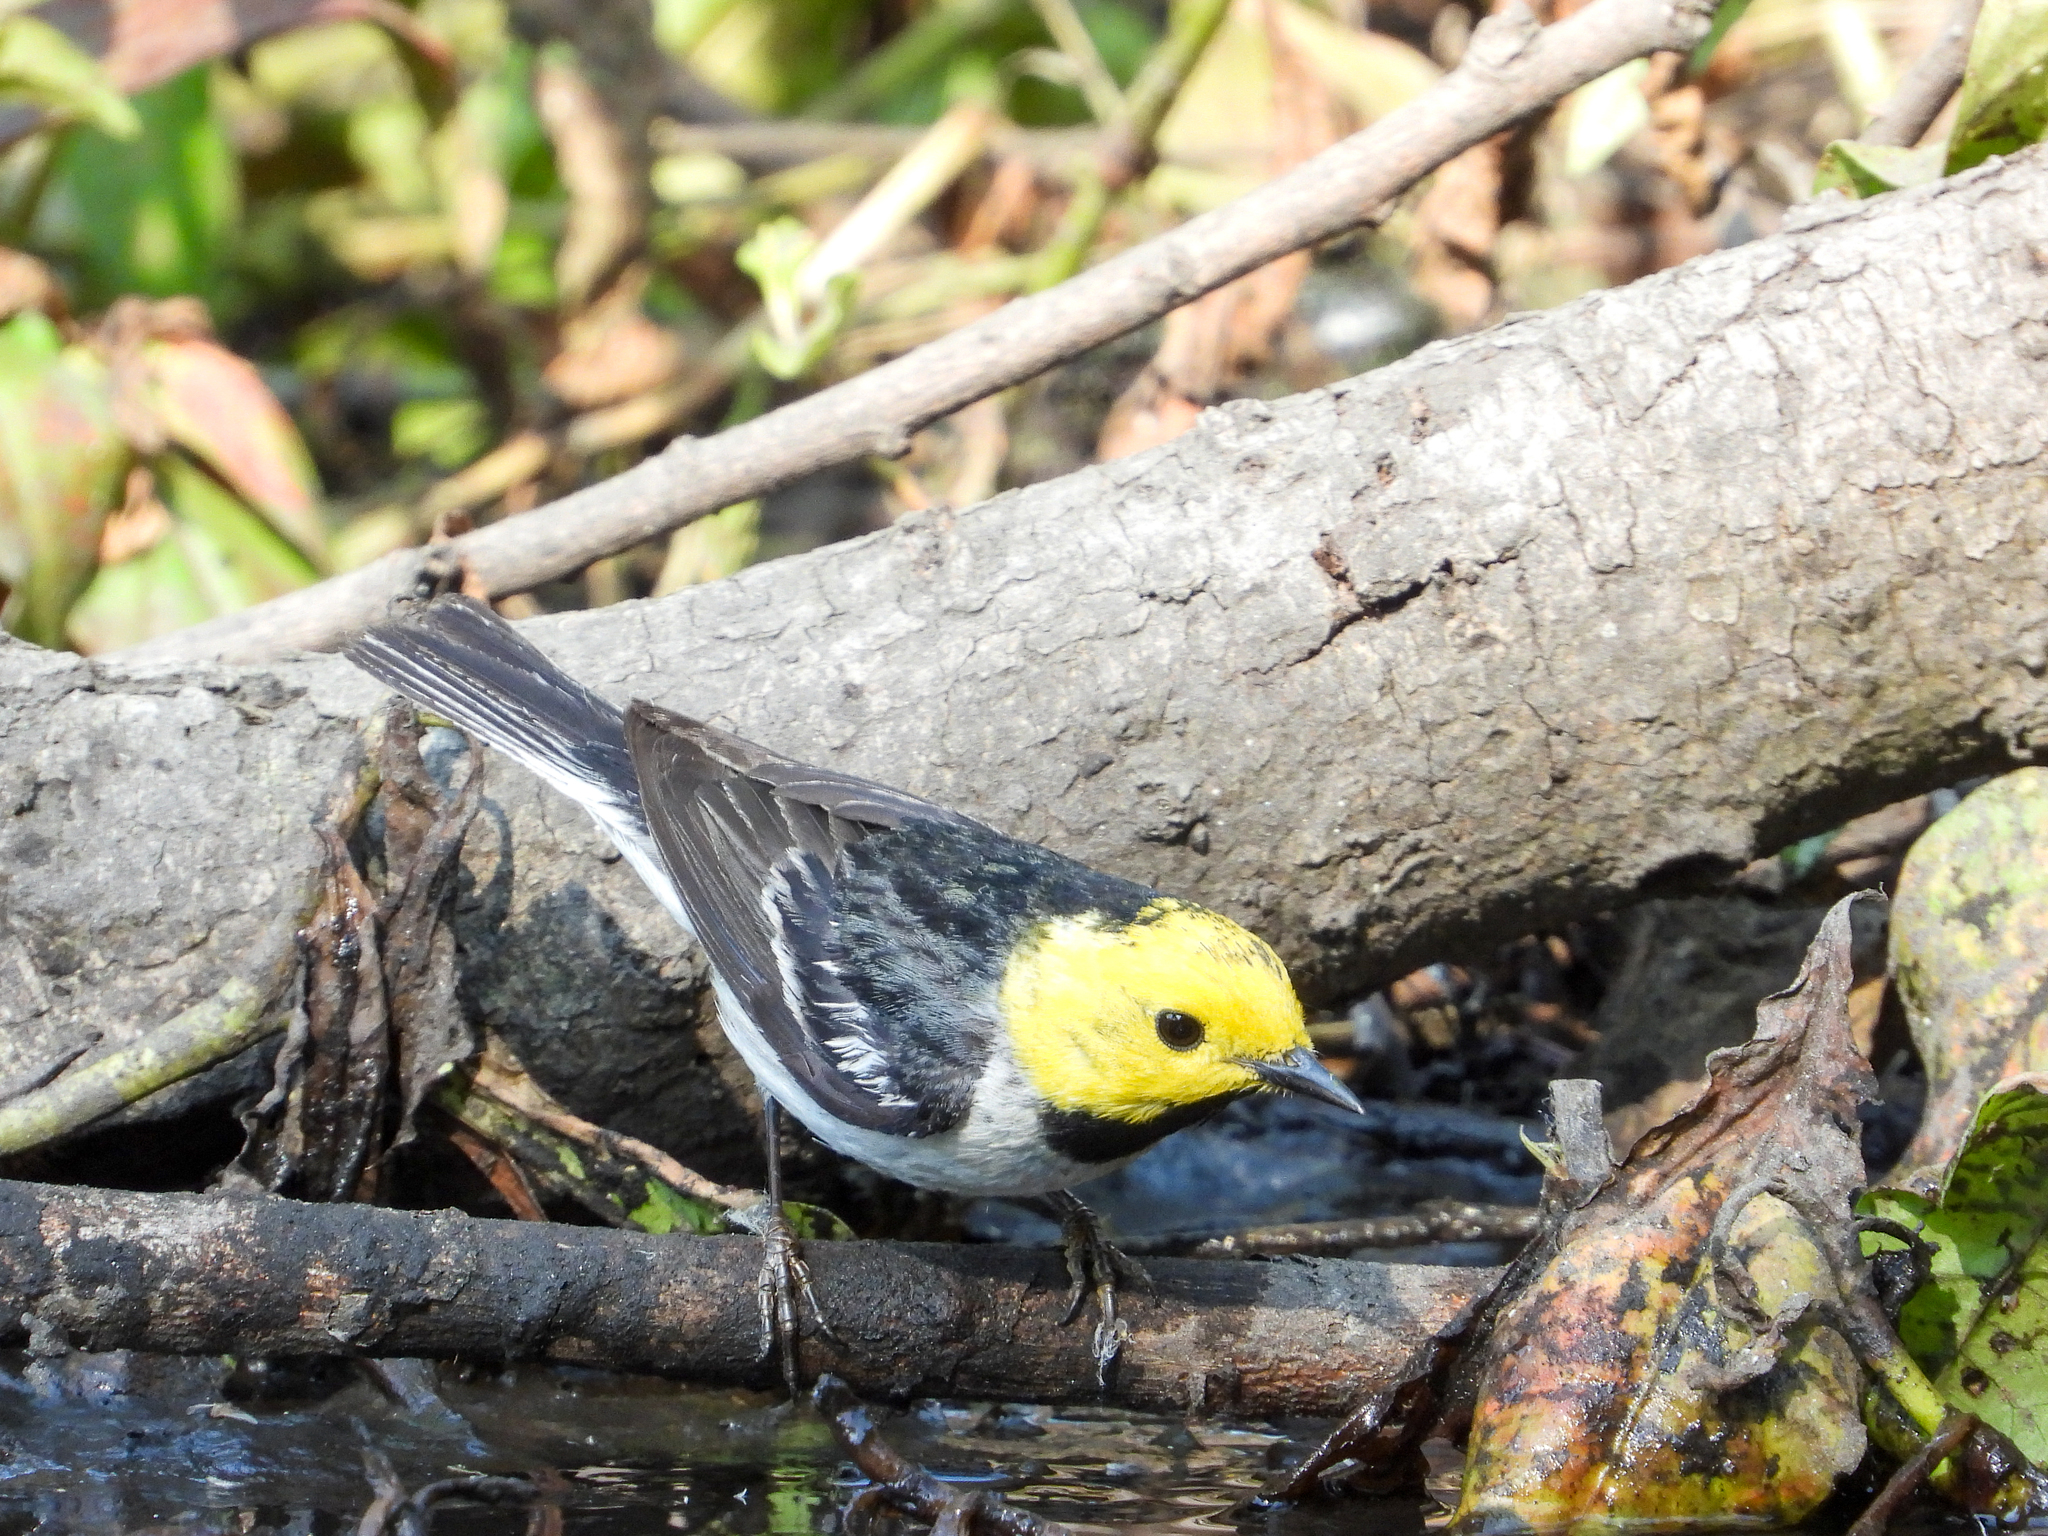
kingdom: Animalia
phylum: Chordata
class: Aves
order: Passeriformes
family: Parulidae
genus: Setophaga
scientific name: Setophaga occidentalis
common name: Hermit warbler
